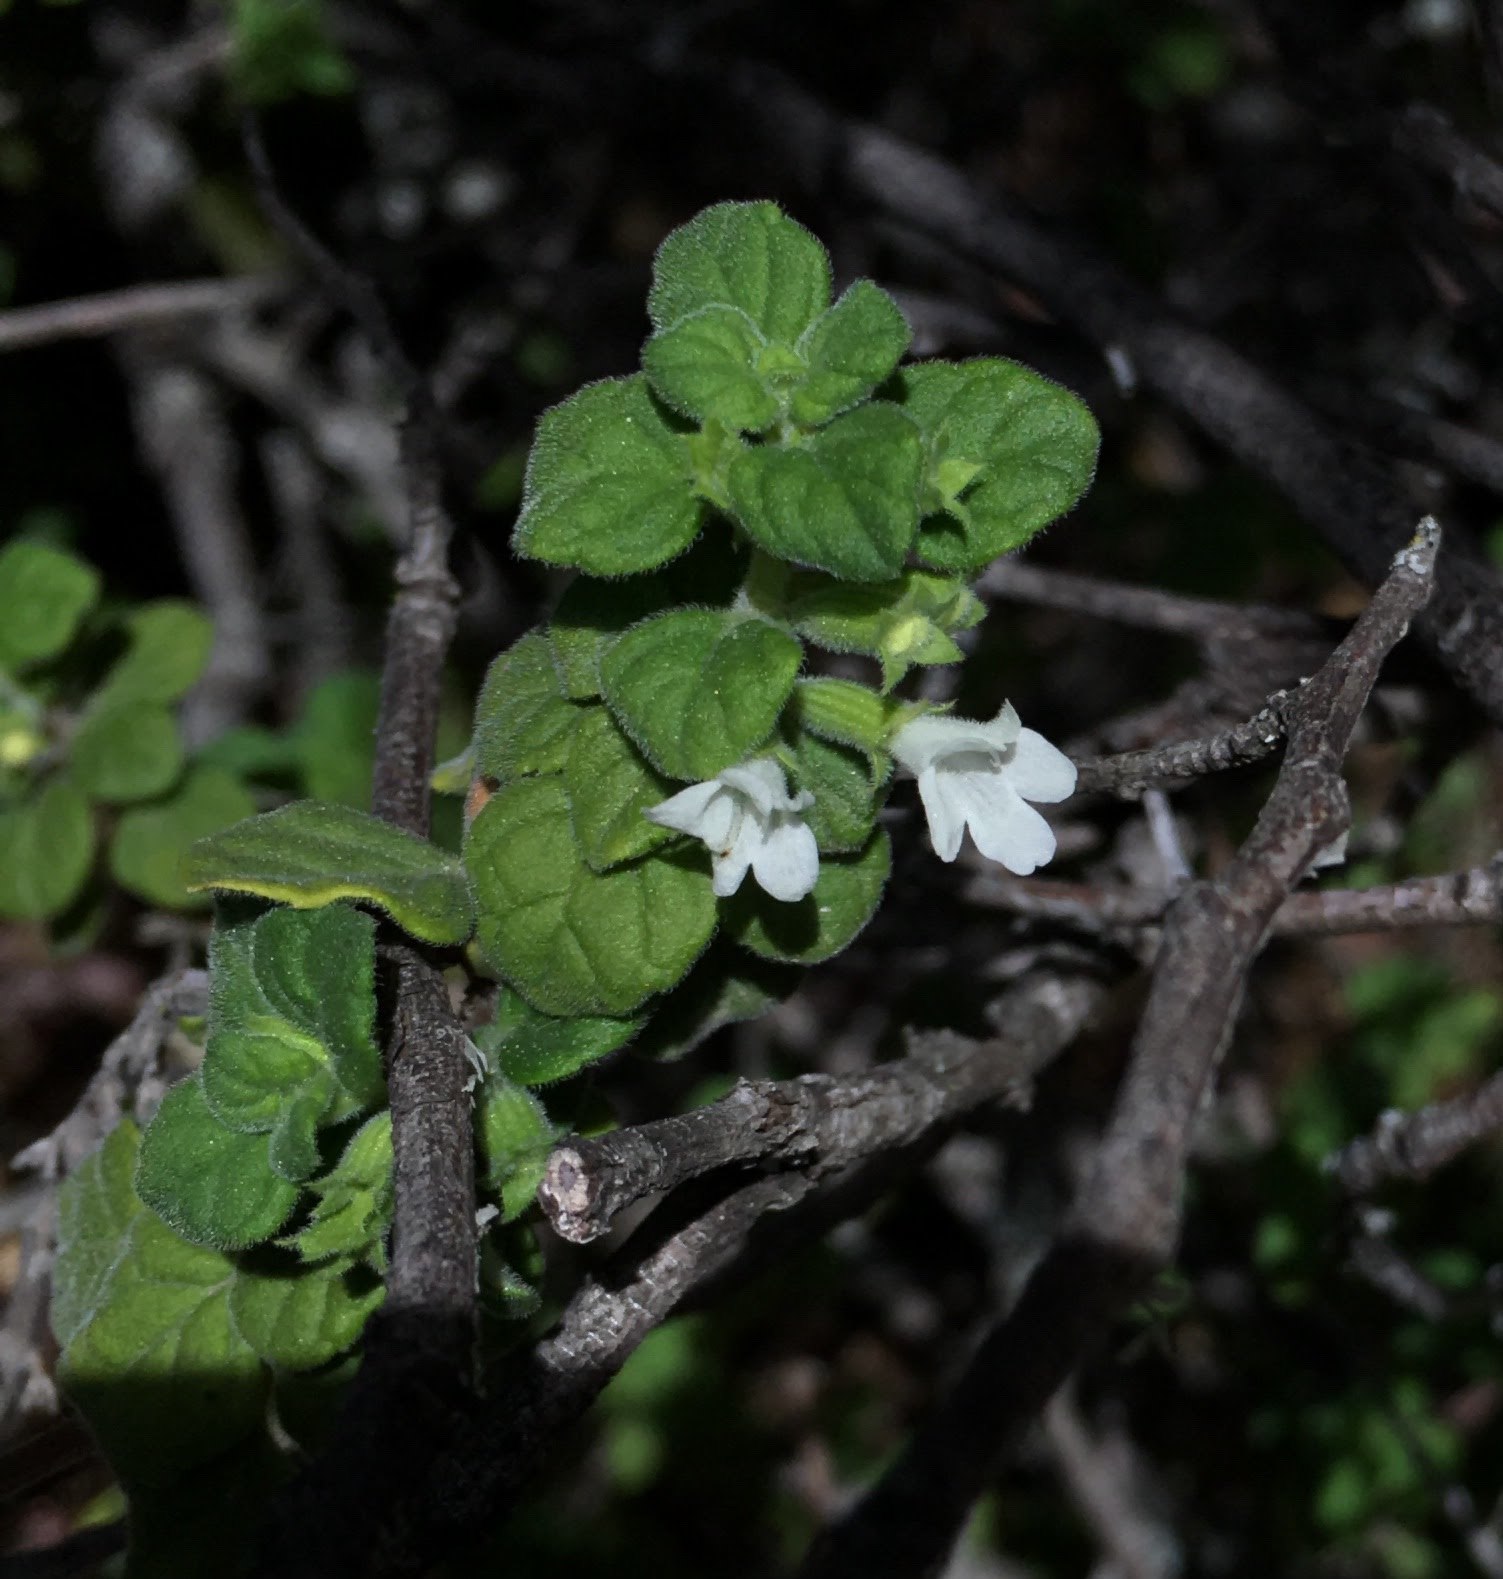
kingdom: Plantae
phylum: Tracheophyta
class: Magnoliopsida
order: Lamiales
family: Lamiaceae
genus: Clinopodium
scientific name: Clinopodium chandleri
